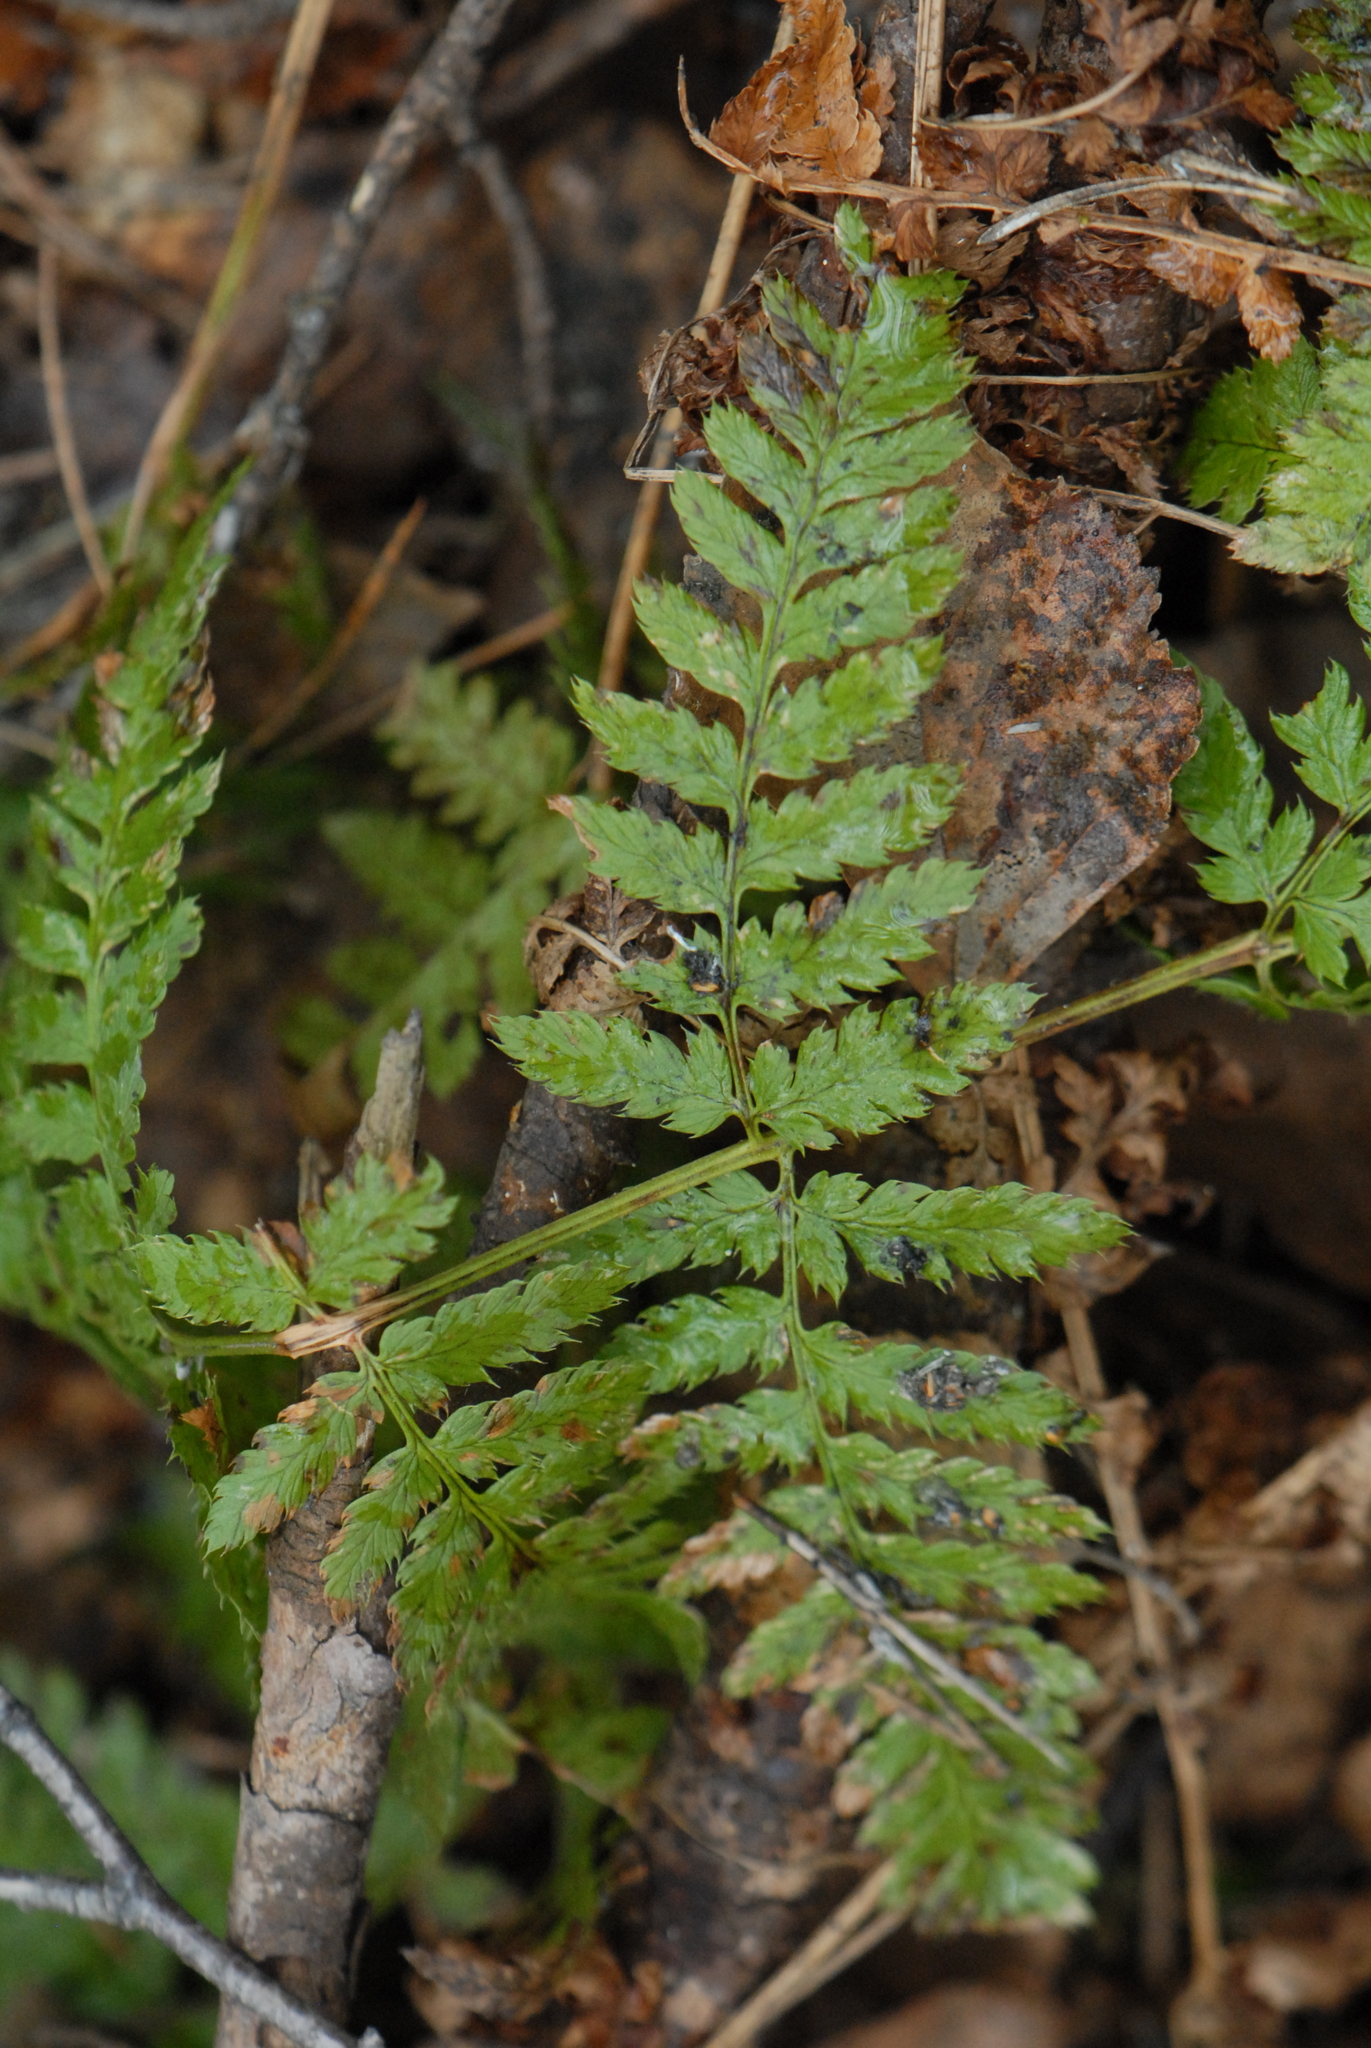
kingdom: Plantae
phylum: Tracheophyta
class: Polypodiopsida
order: Polypodiales
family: Dryopteridaceae
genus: Dryopteris
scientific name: Dryopteris carthusiana
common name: Narrow buckler-fern
